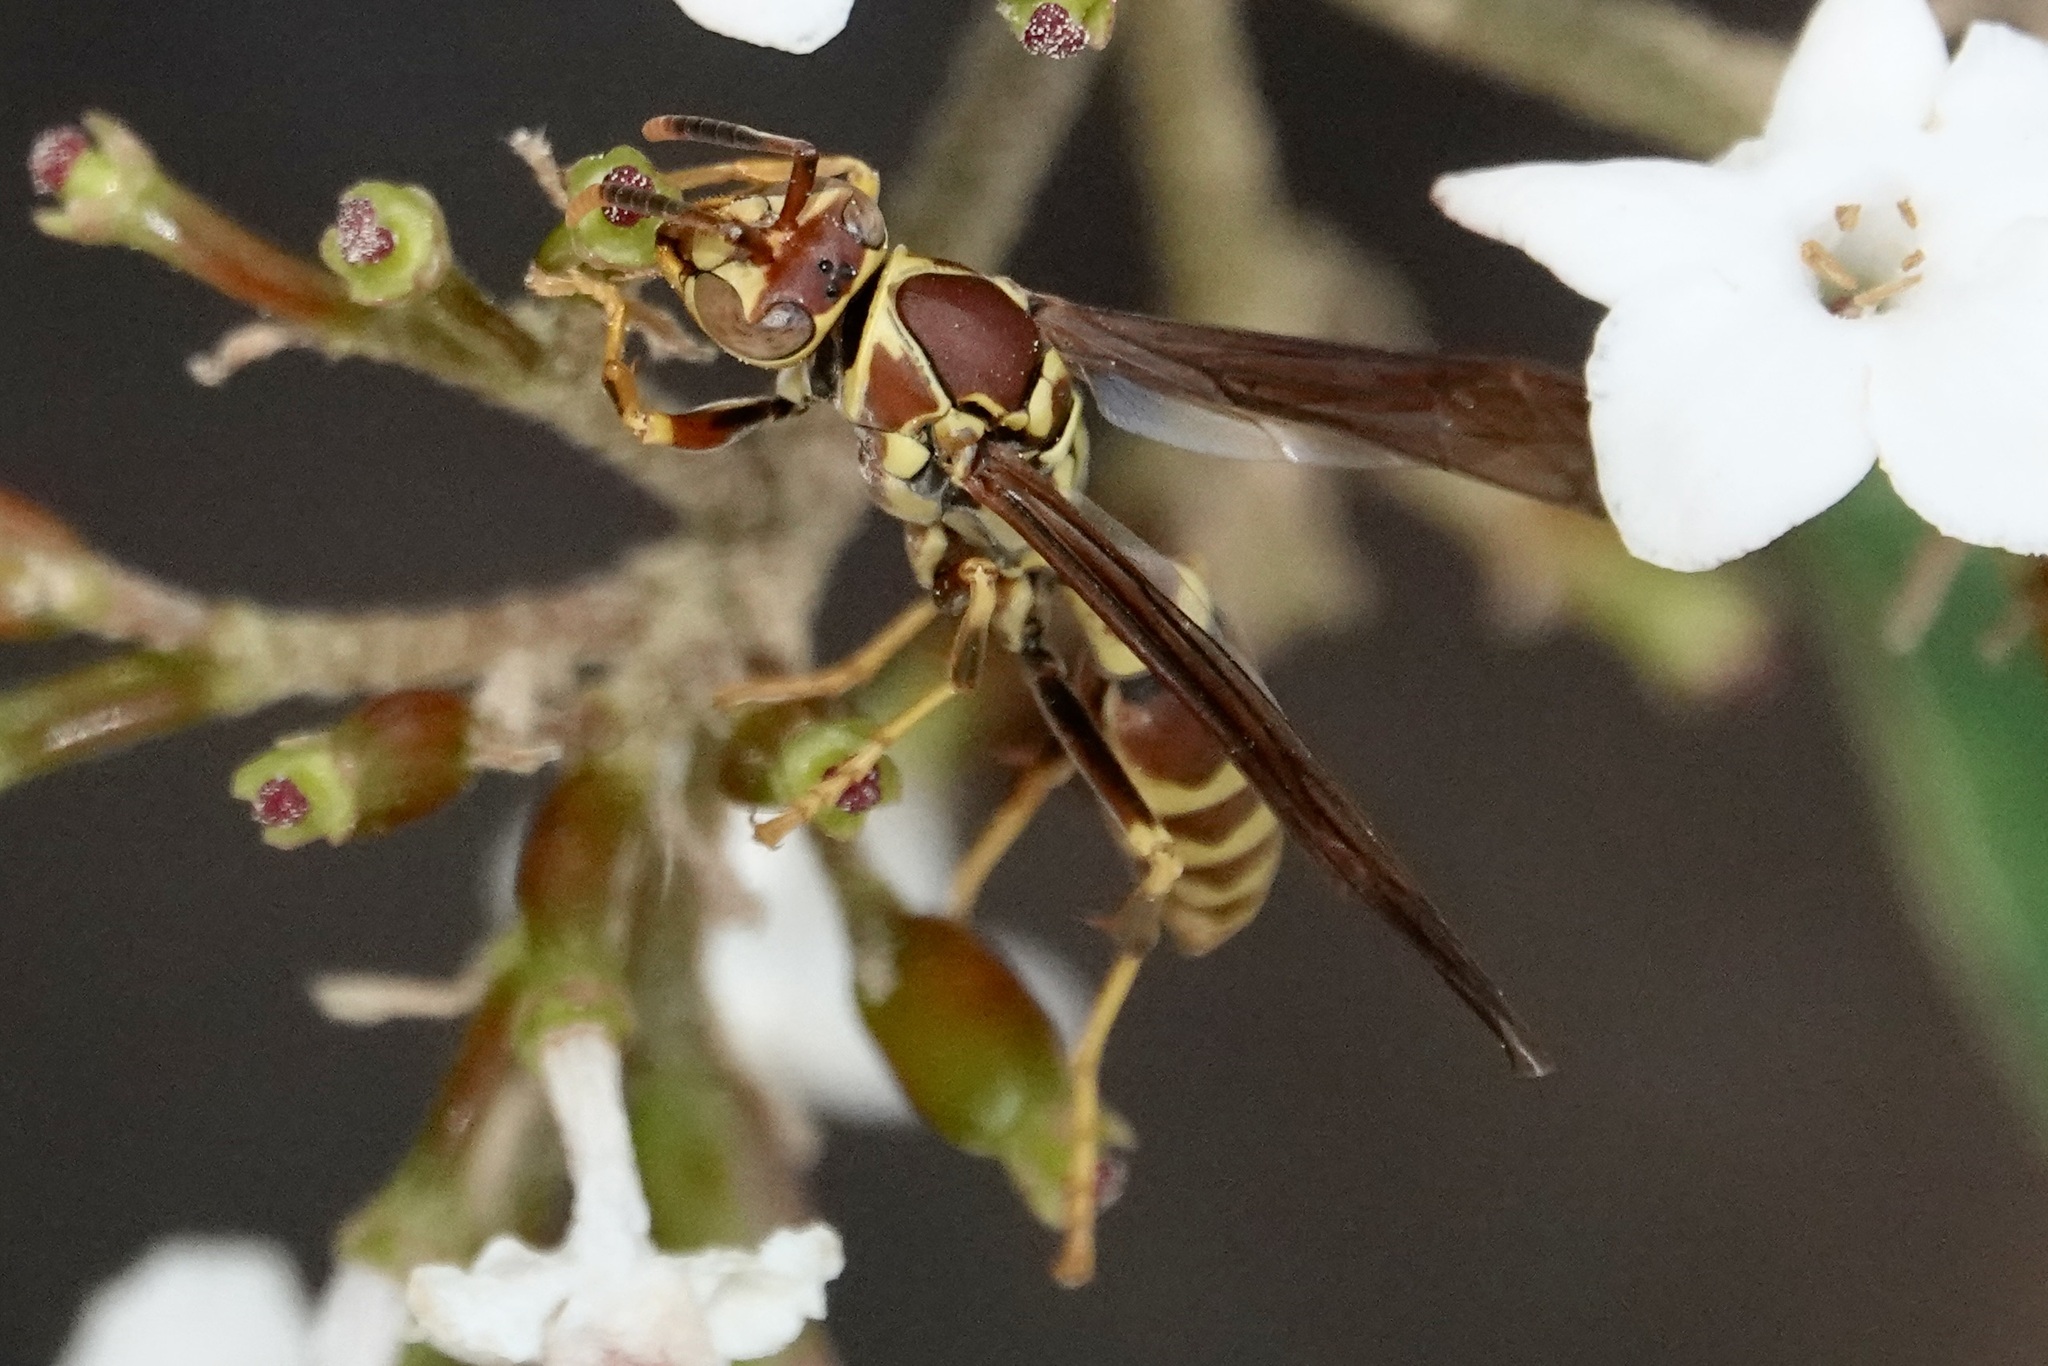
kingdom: Animalia
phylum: Arthropoda
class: Insecta
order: Hymenoptera
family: Eumenidae
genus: Polistes
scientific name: Polistes exclamans
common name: Paper wasp
